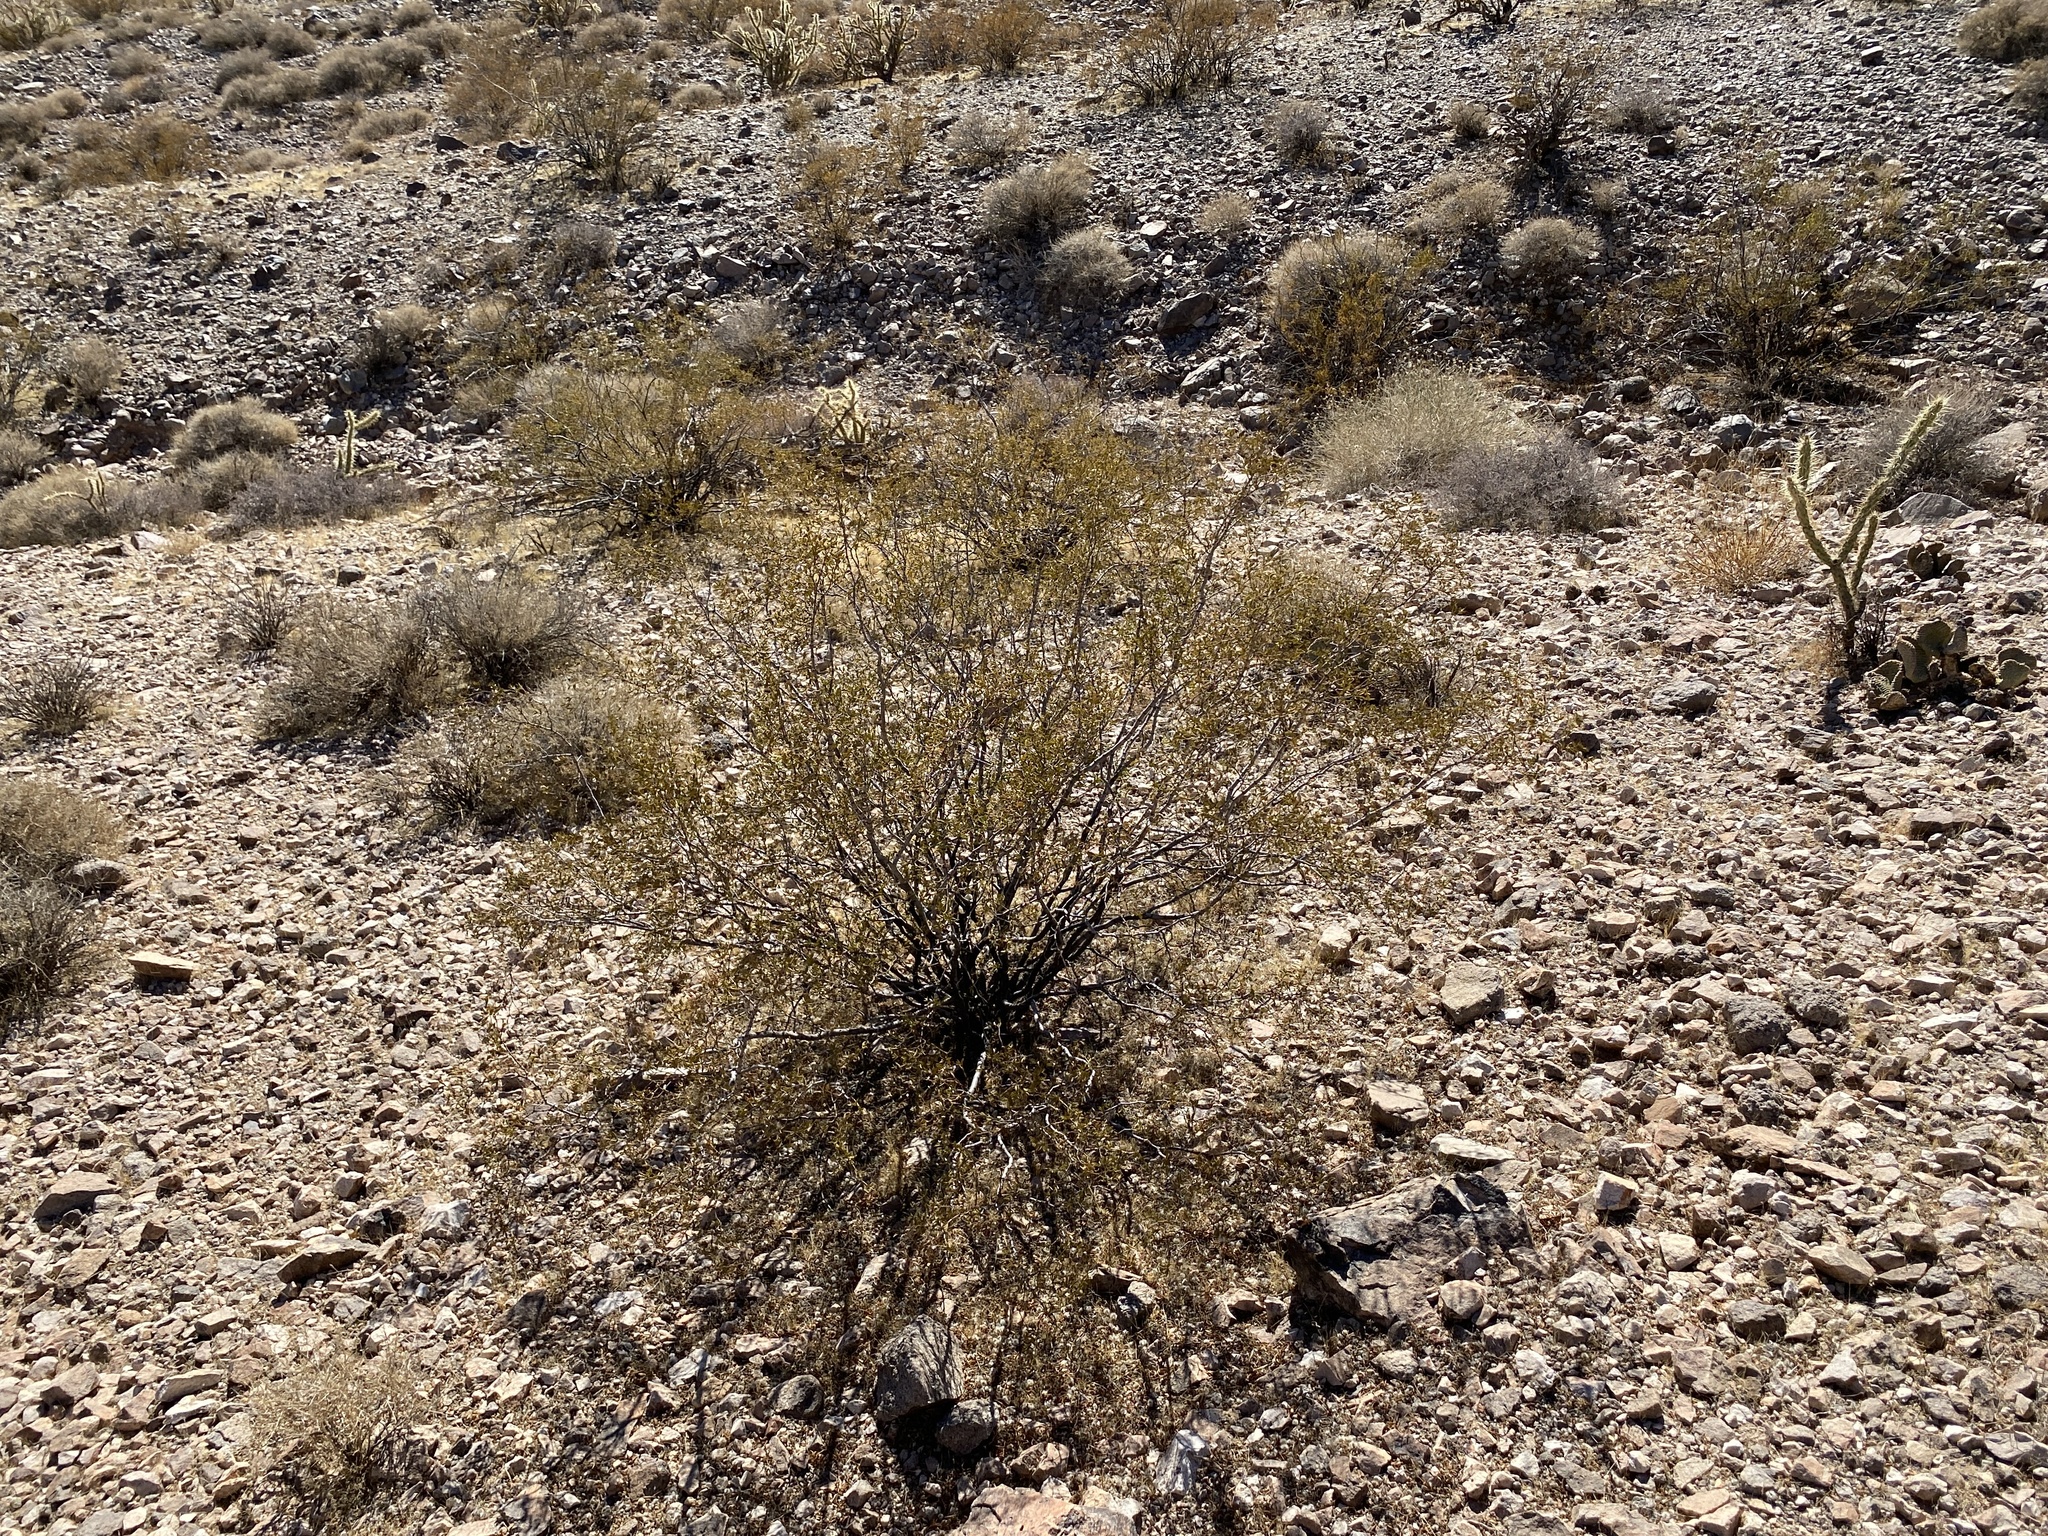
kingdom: Plantae
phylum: Tracheophyta
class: Magnoliopsida
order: Zygophyllales
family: Zygophyllaceae
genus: Larrea
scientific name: Larrea tridentata
